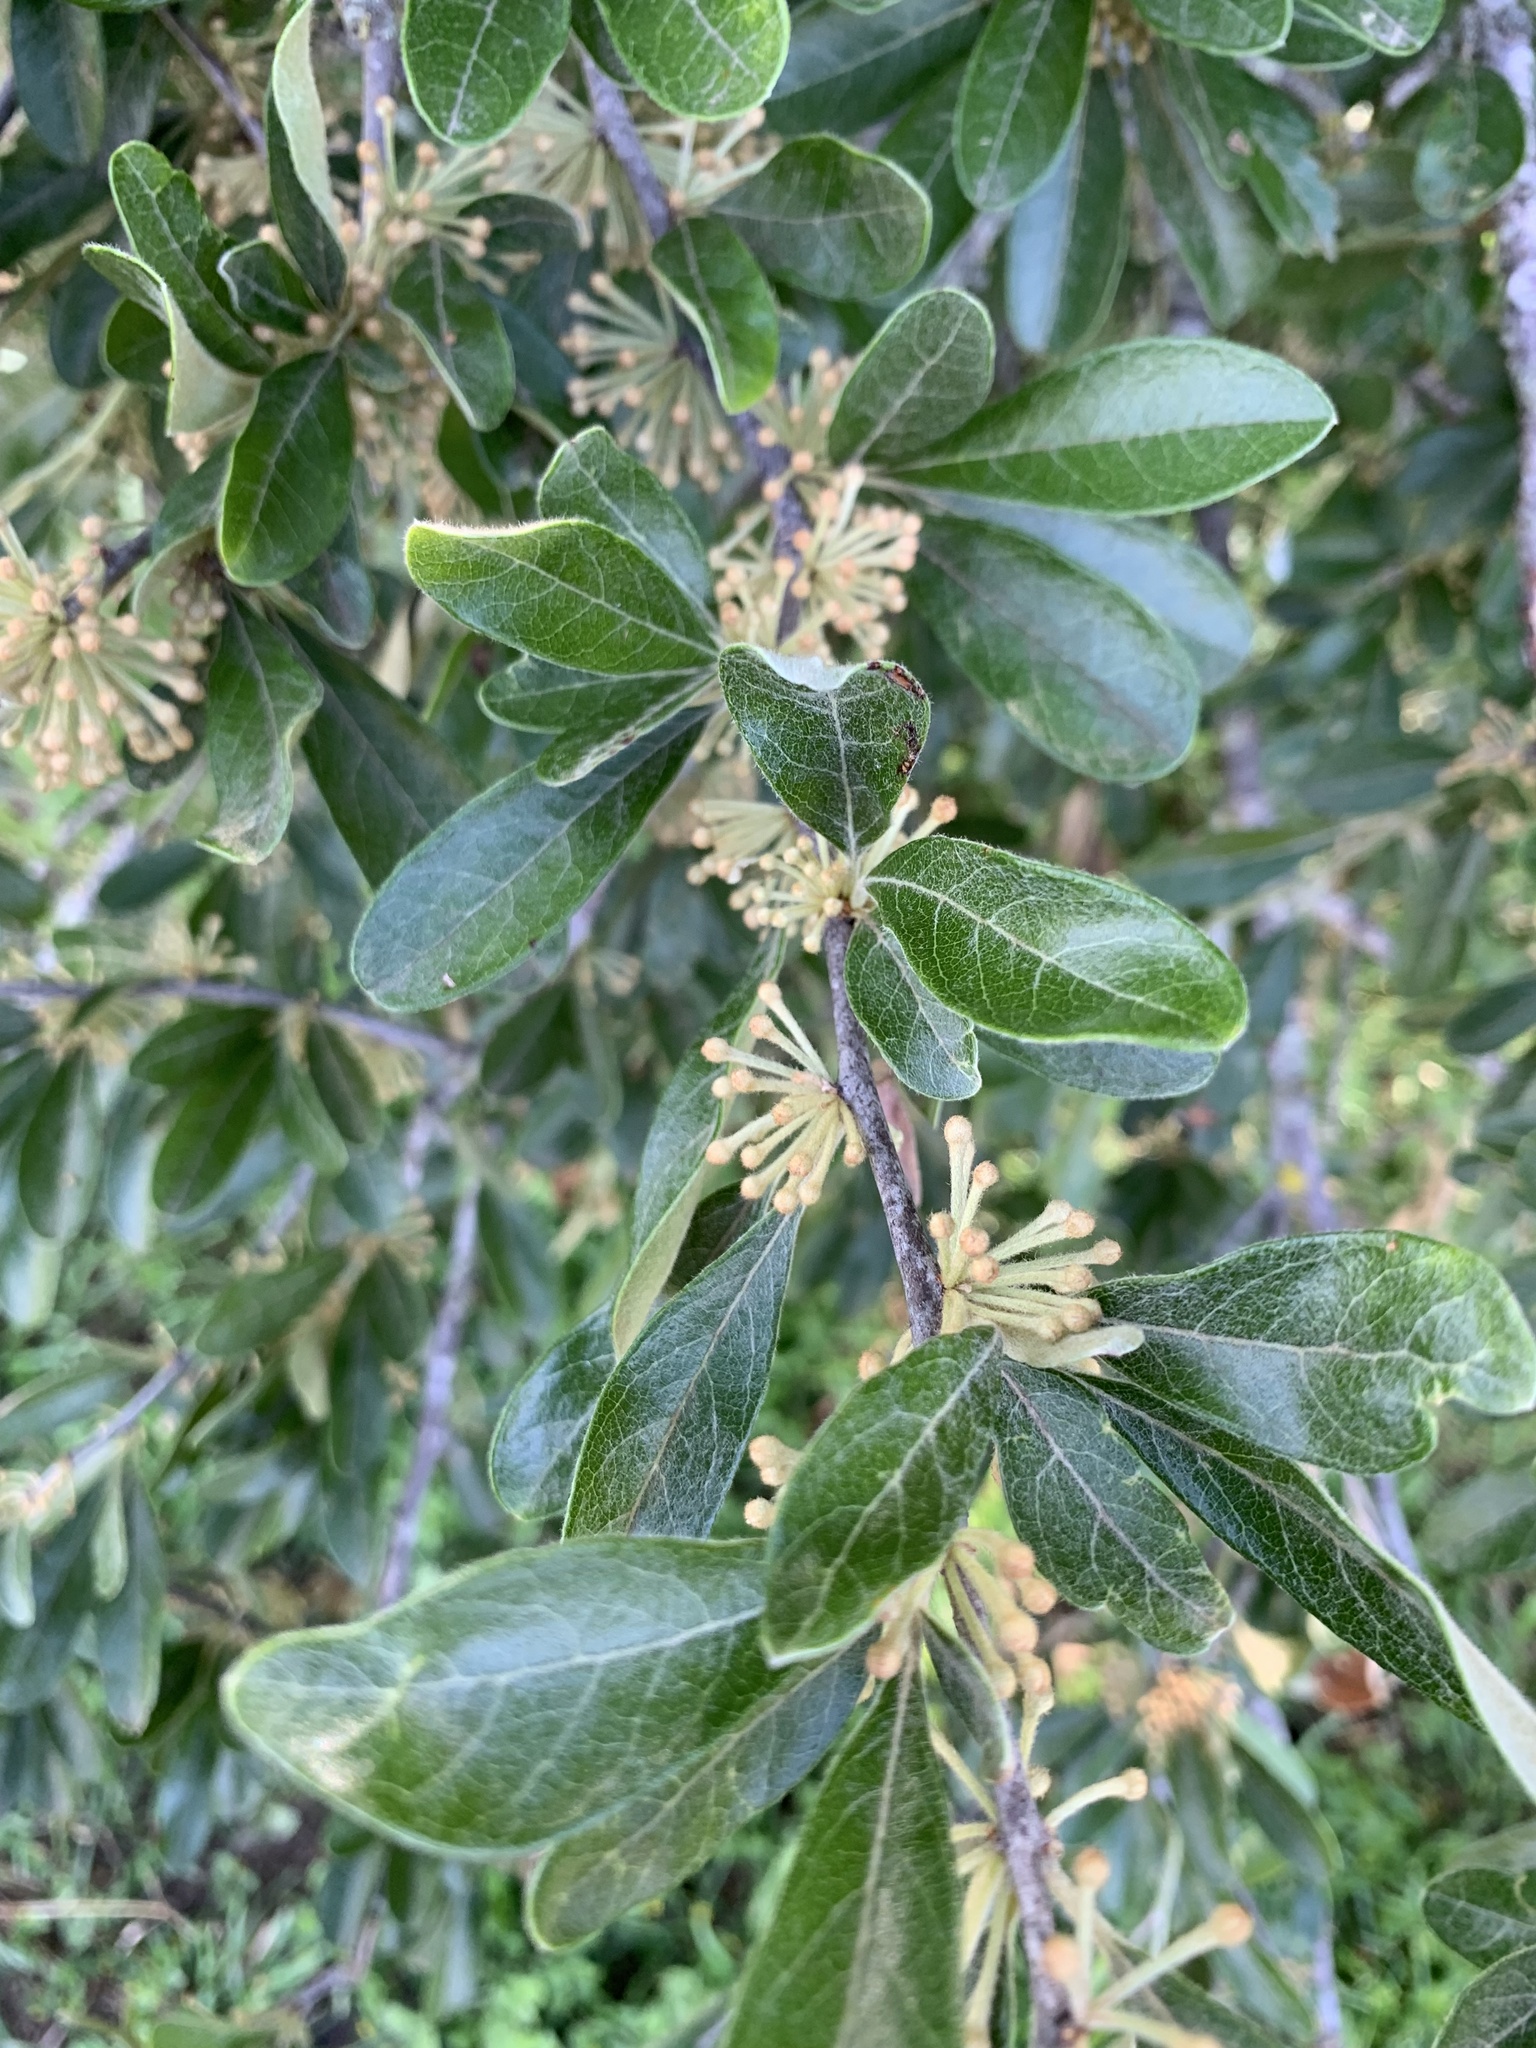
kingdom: Plantae
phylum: Tracheophyta
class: Magnoliopsida
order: Ericales
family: Sapotaceae
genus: Sideroxylon
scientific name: Sideroxylon lanuginosum
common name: Chittamwood
